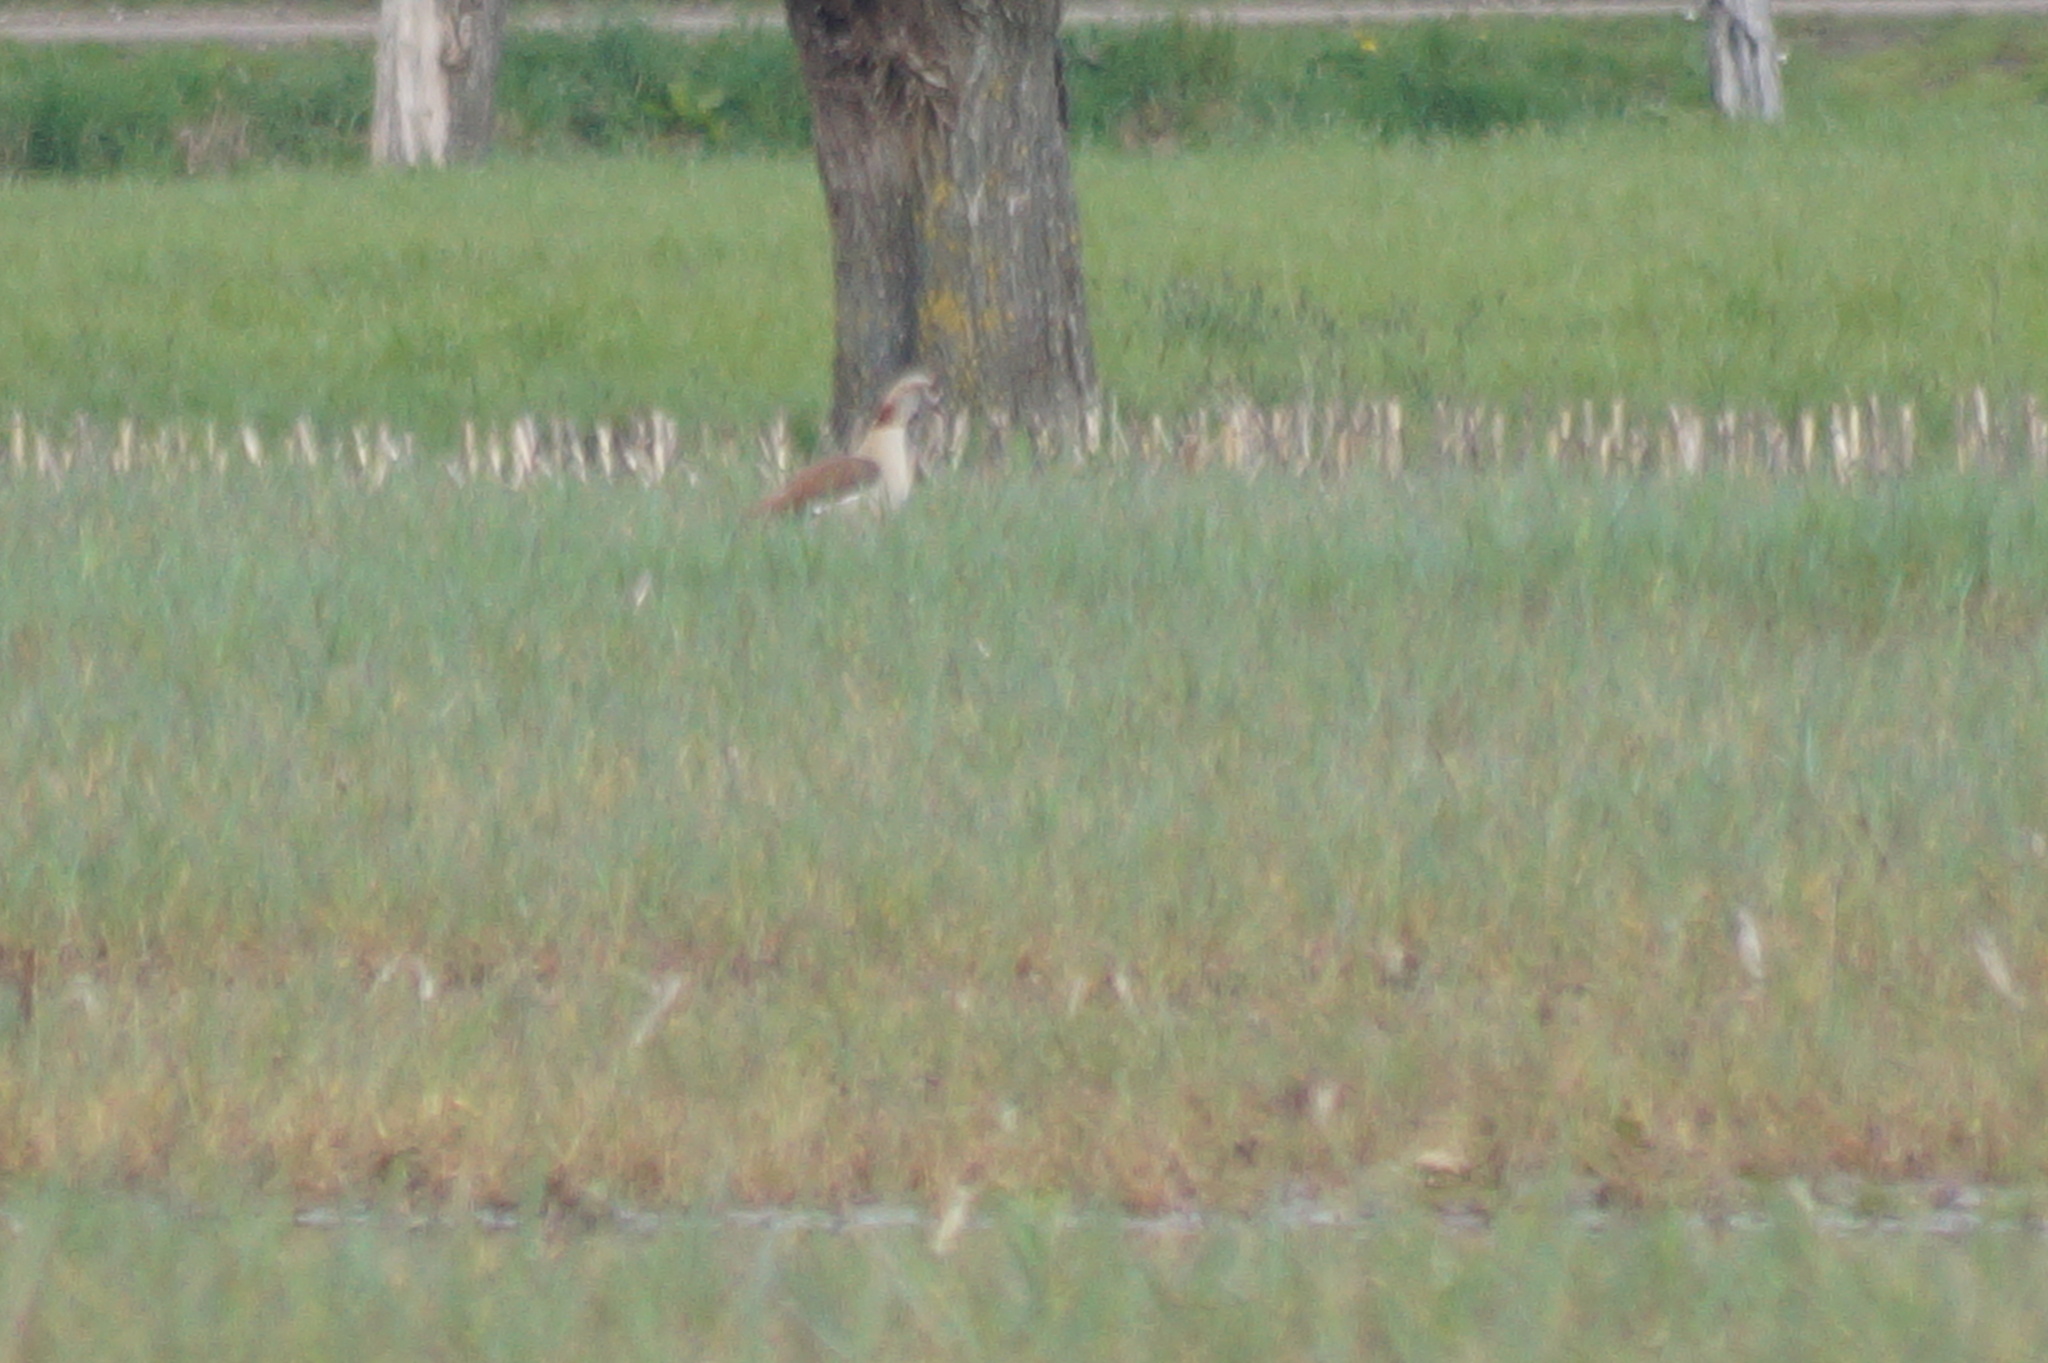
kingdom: Animalia
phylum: Chordata
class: Aves
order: Anseriformes
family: Anatidae
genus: Alopochen
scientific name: Alopochen aegyptiaca
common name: Egyptian goose
